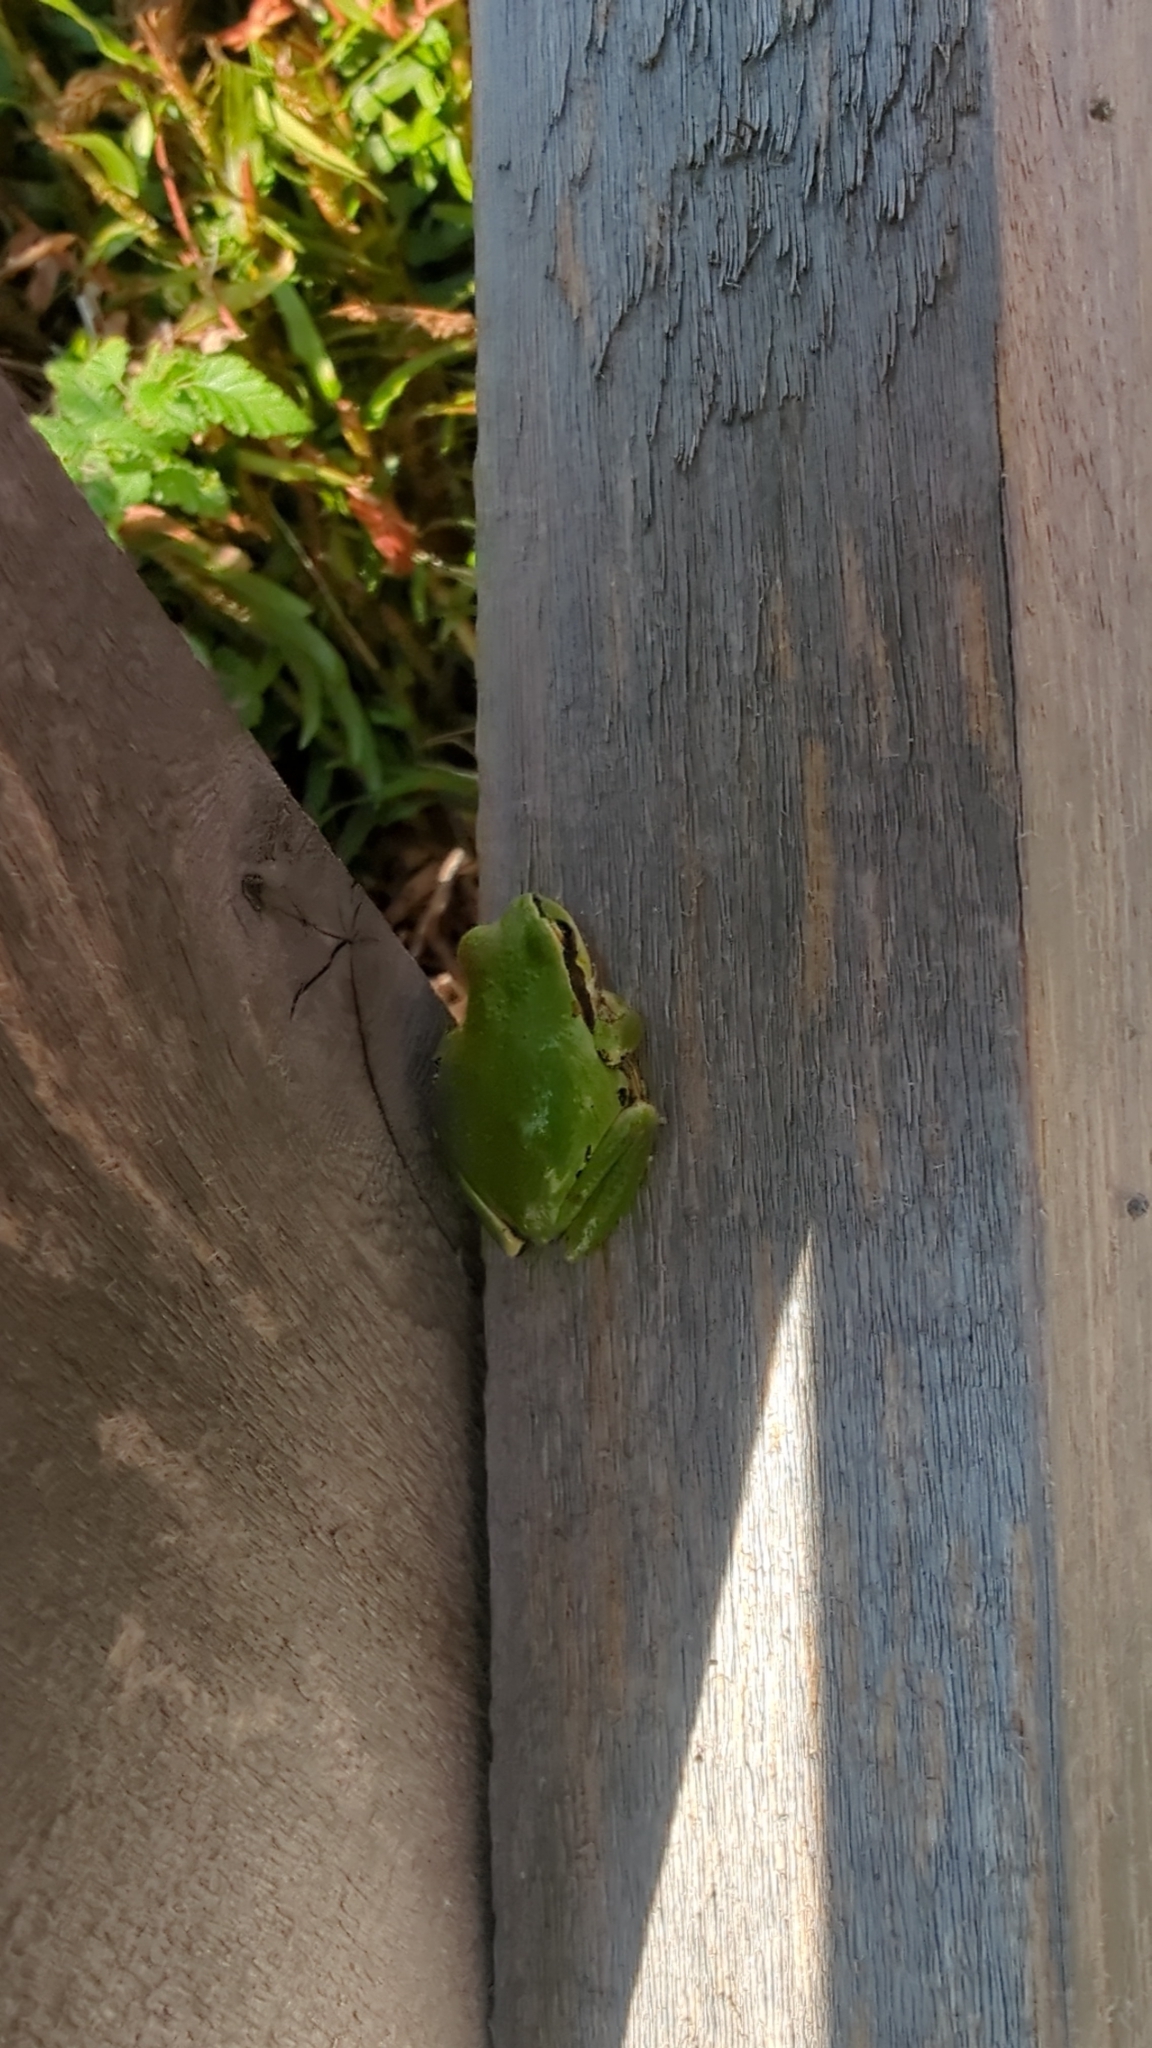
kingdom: Animalia
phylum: Chordata
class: Amphibia
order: Anura
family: Hylidae
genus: Pseudacris
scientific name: Pseudacris regilla
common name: Pacific chorus frog
